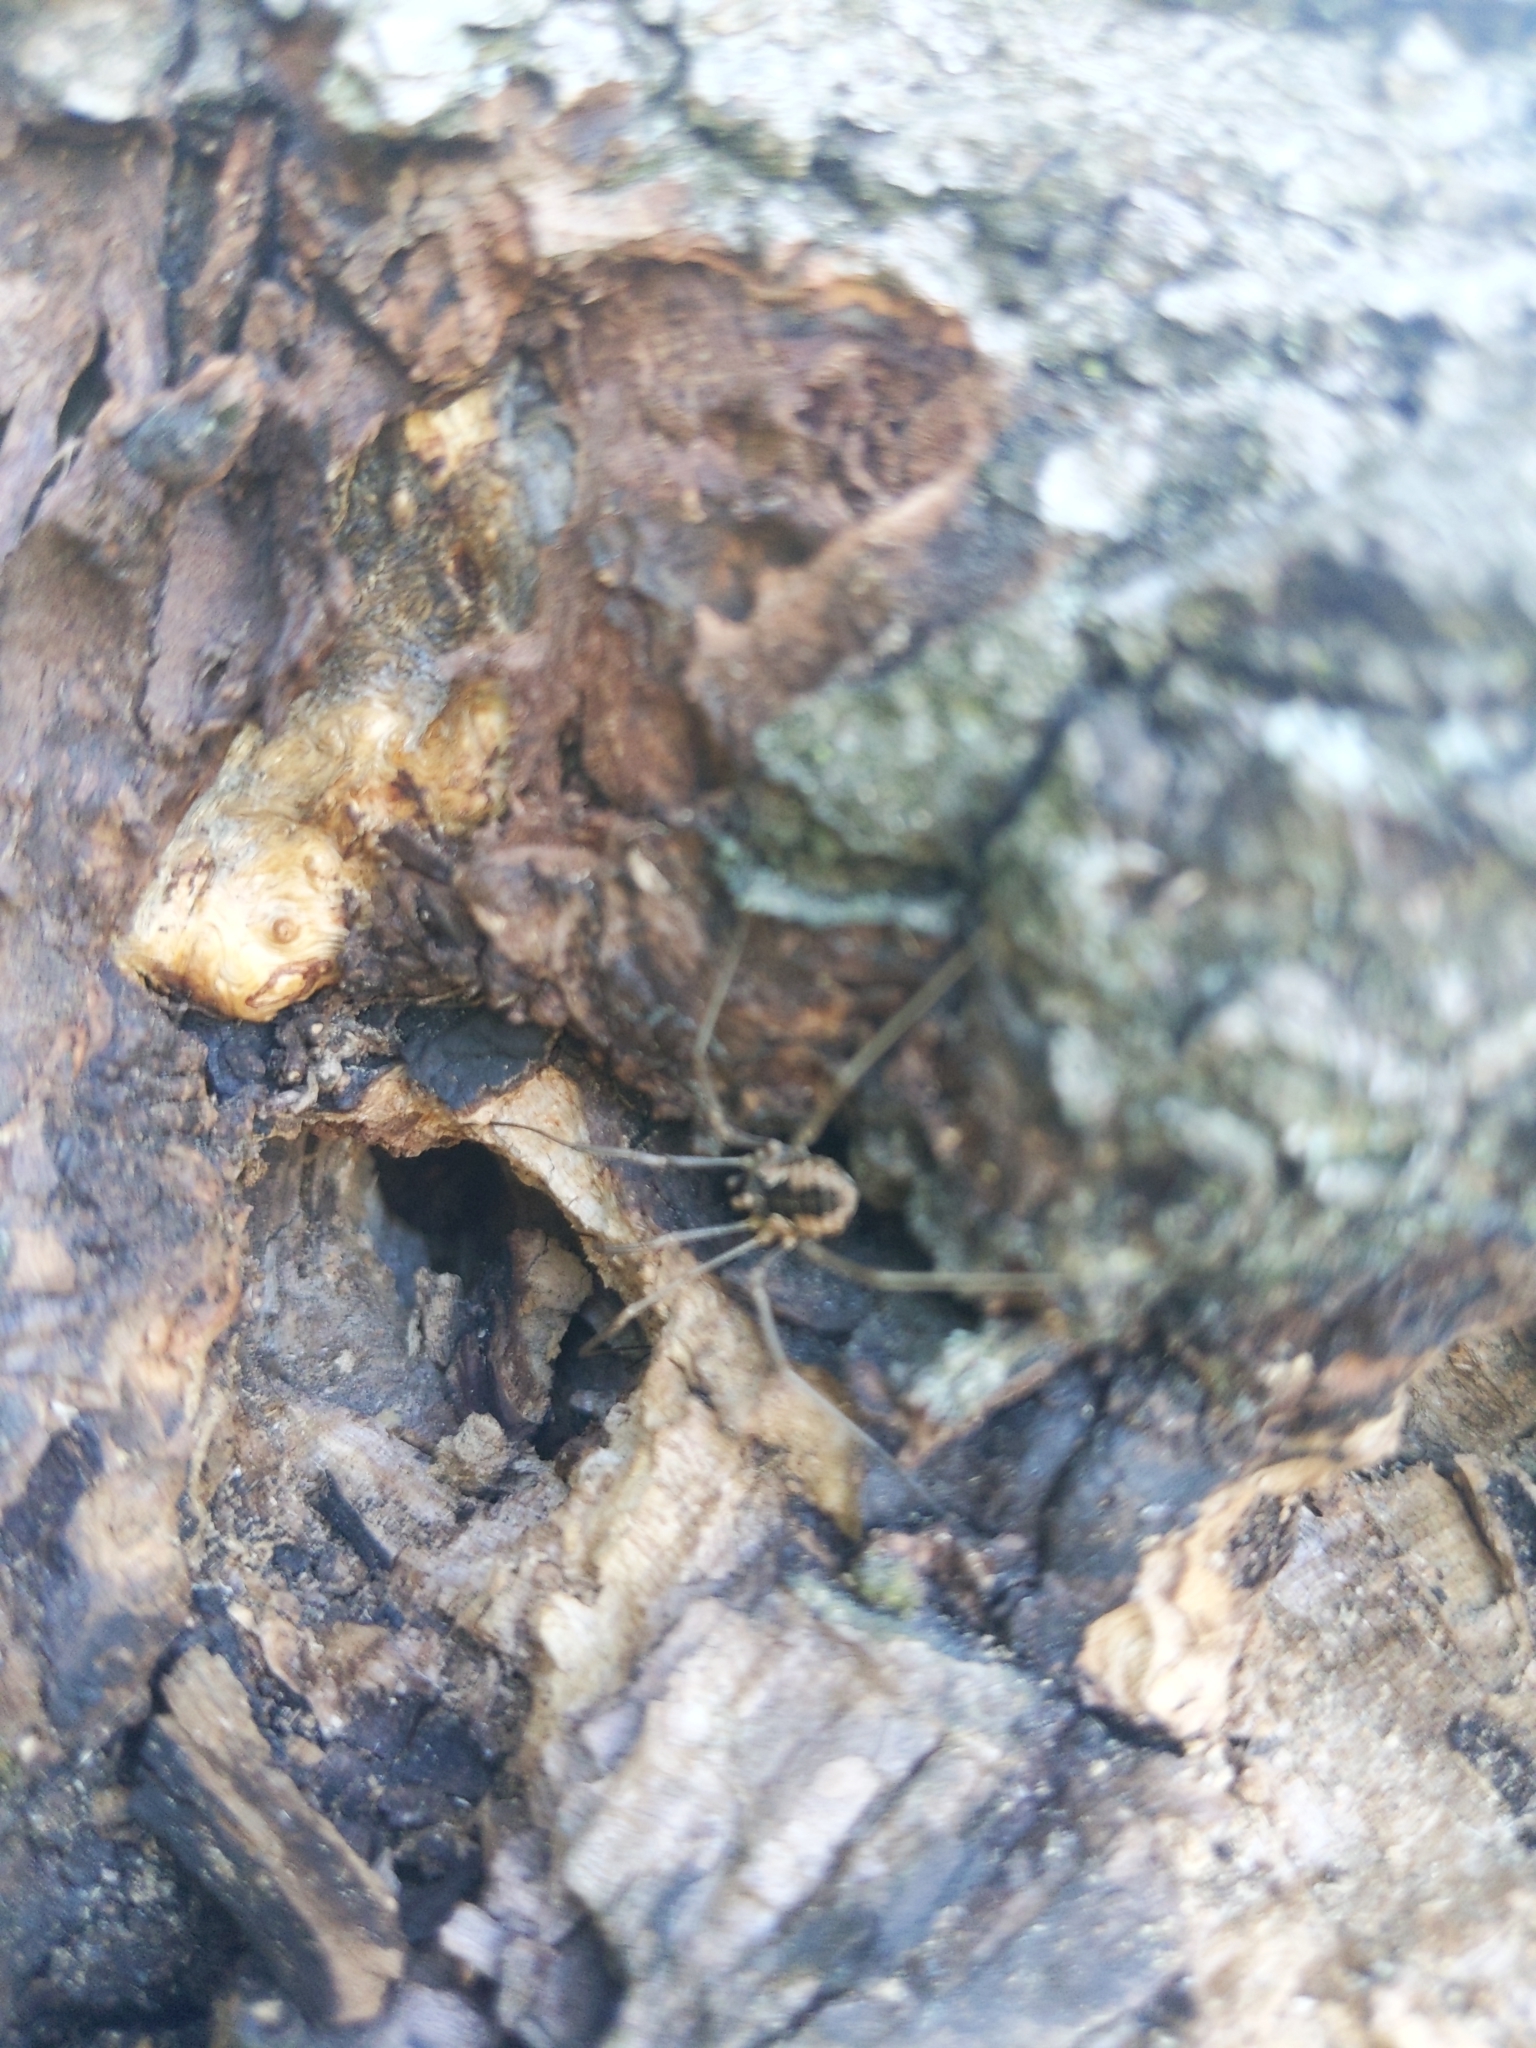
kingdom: Animalia
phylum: Arthropoda
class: Arachnida
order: Opiliones
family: Phalangiidae
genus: Phalangium
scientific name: Phalangium opilio
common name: Daddy longleg
